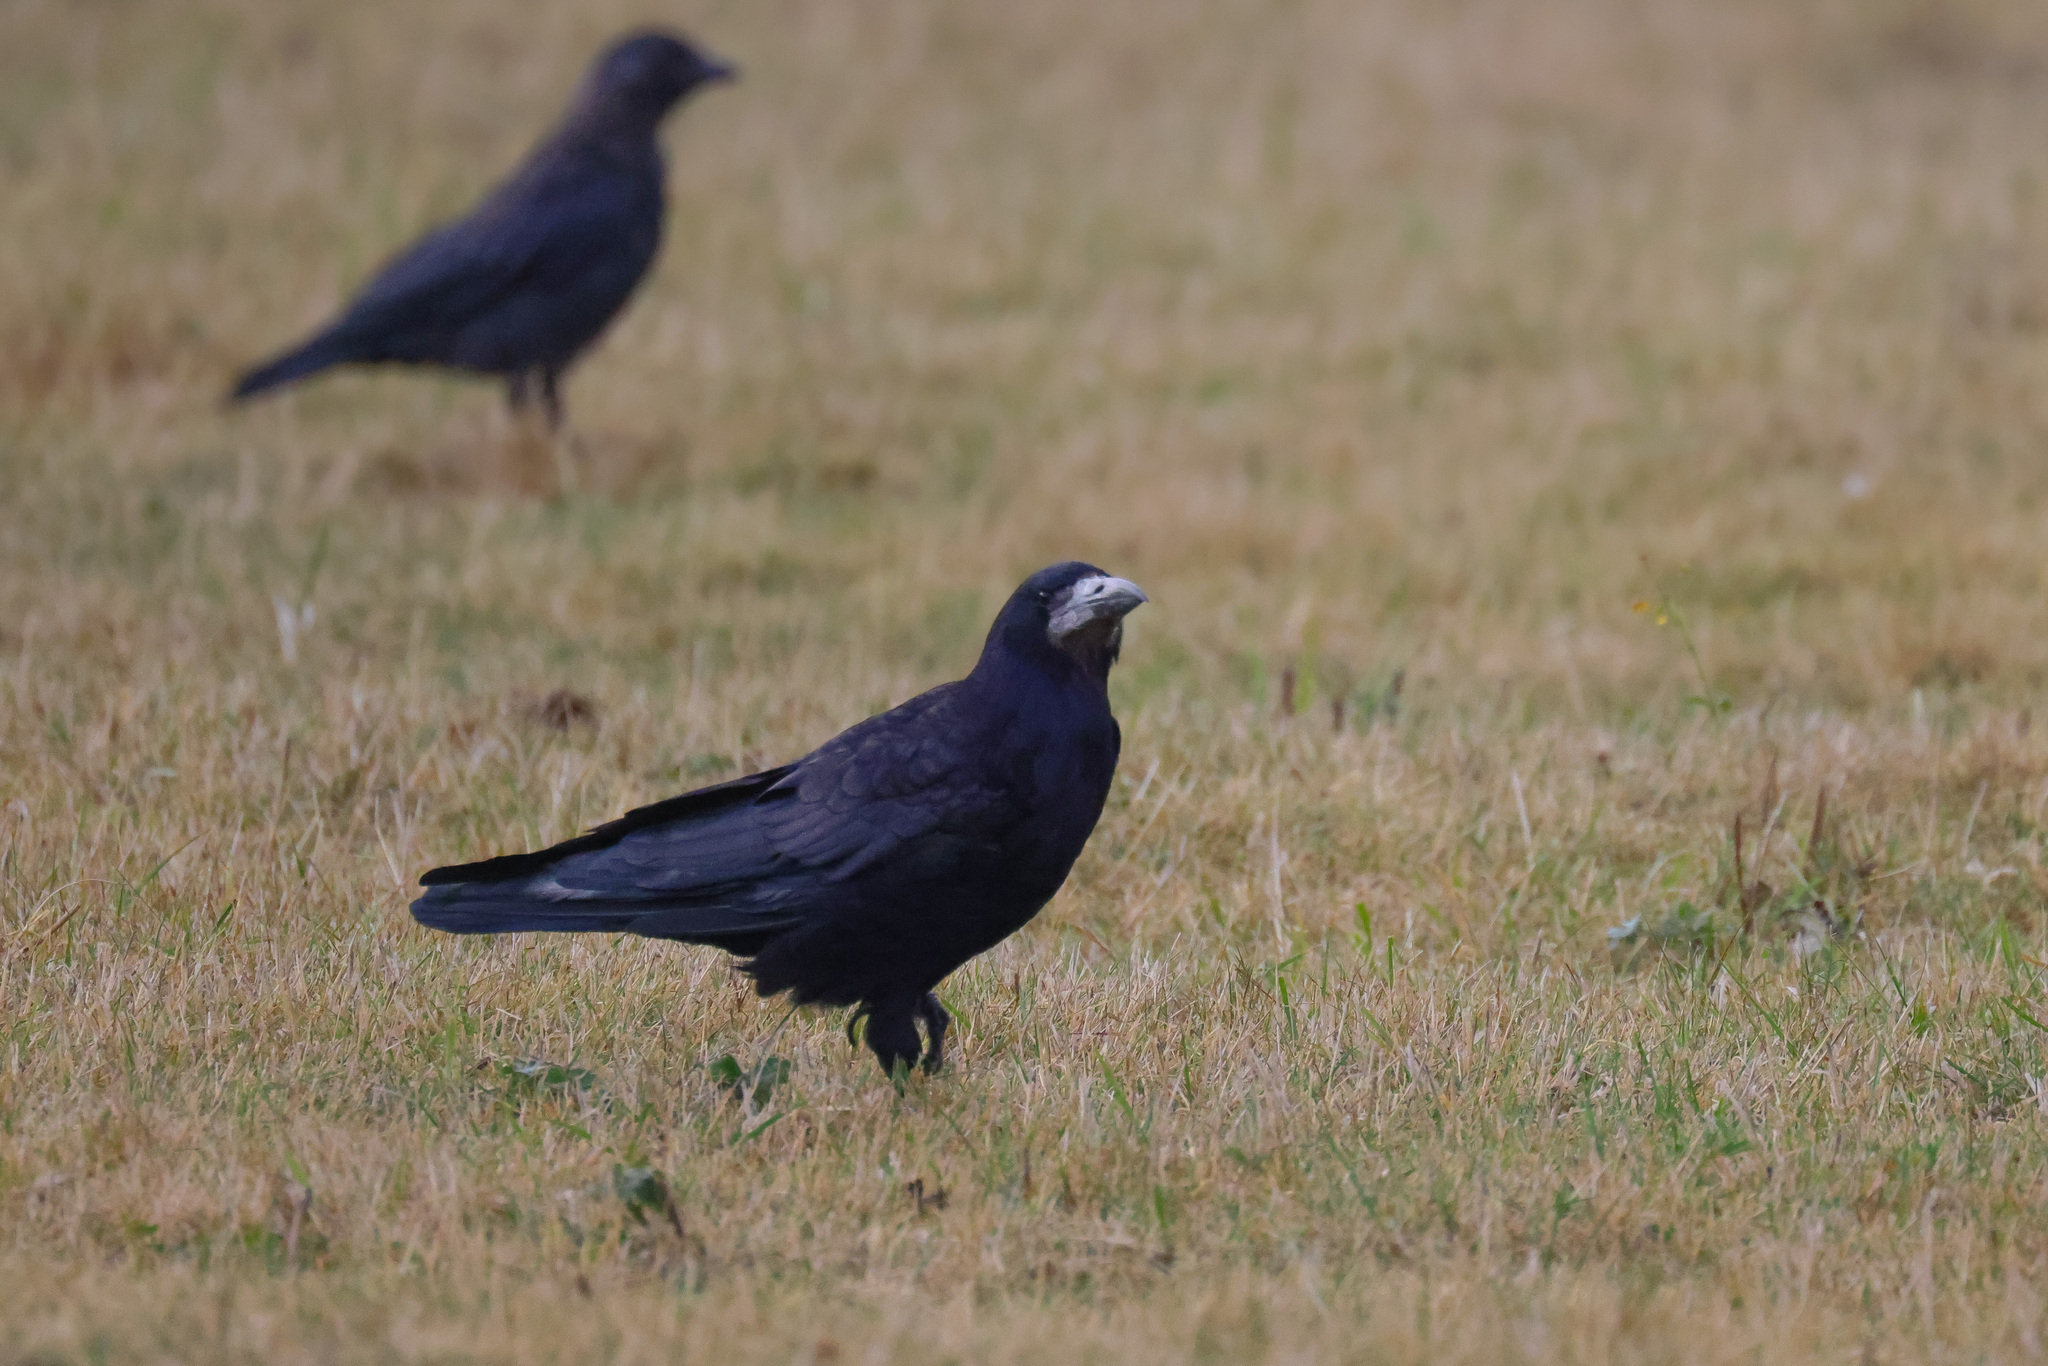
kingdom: Animalia
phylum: Chordata
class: Aves
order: Passeriformes
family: Corvidae
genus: Corvus
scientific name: Corvus frugilegus
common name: Rook
